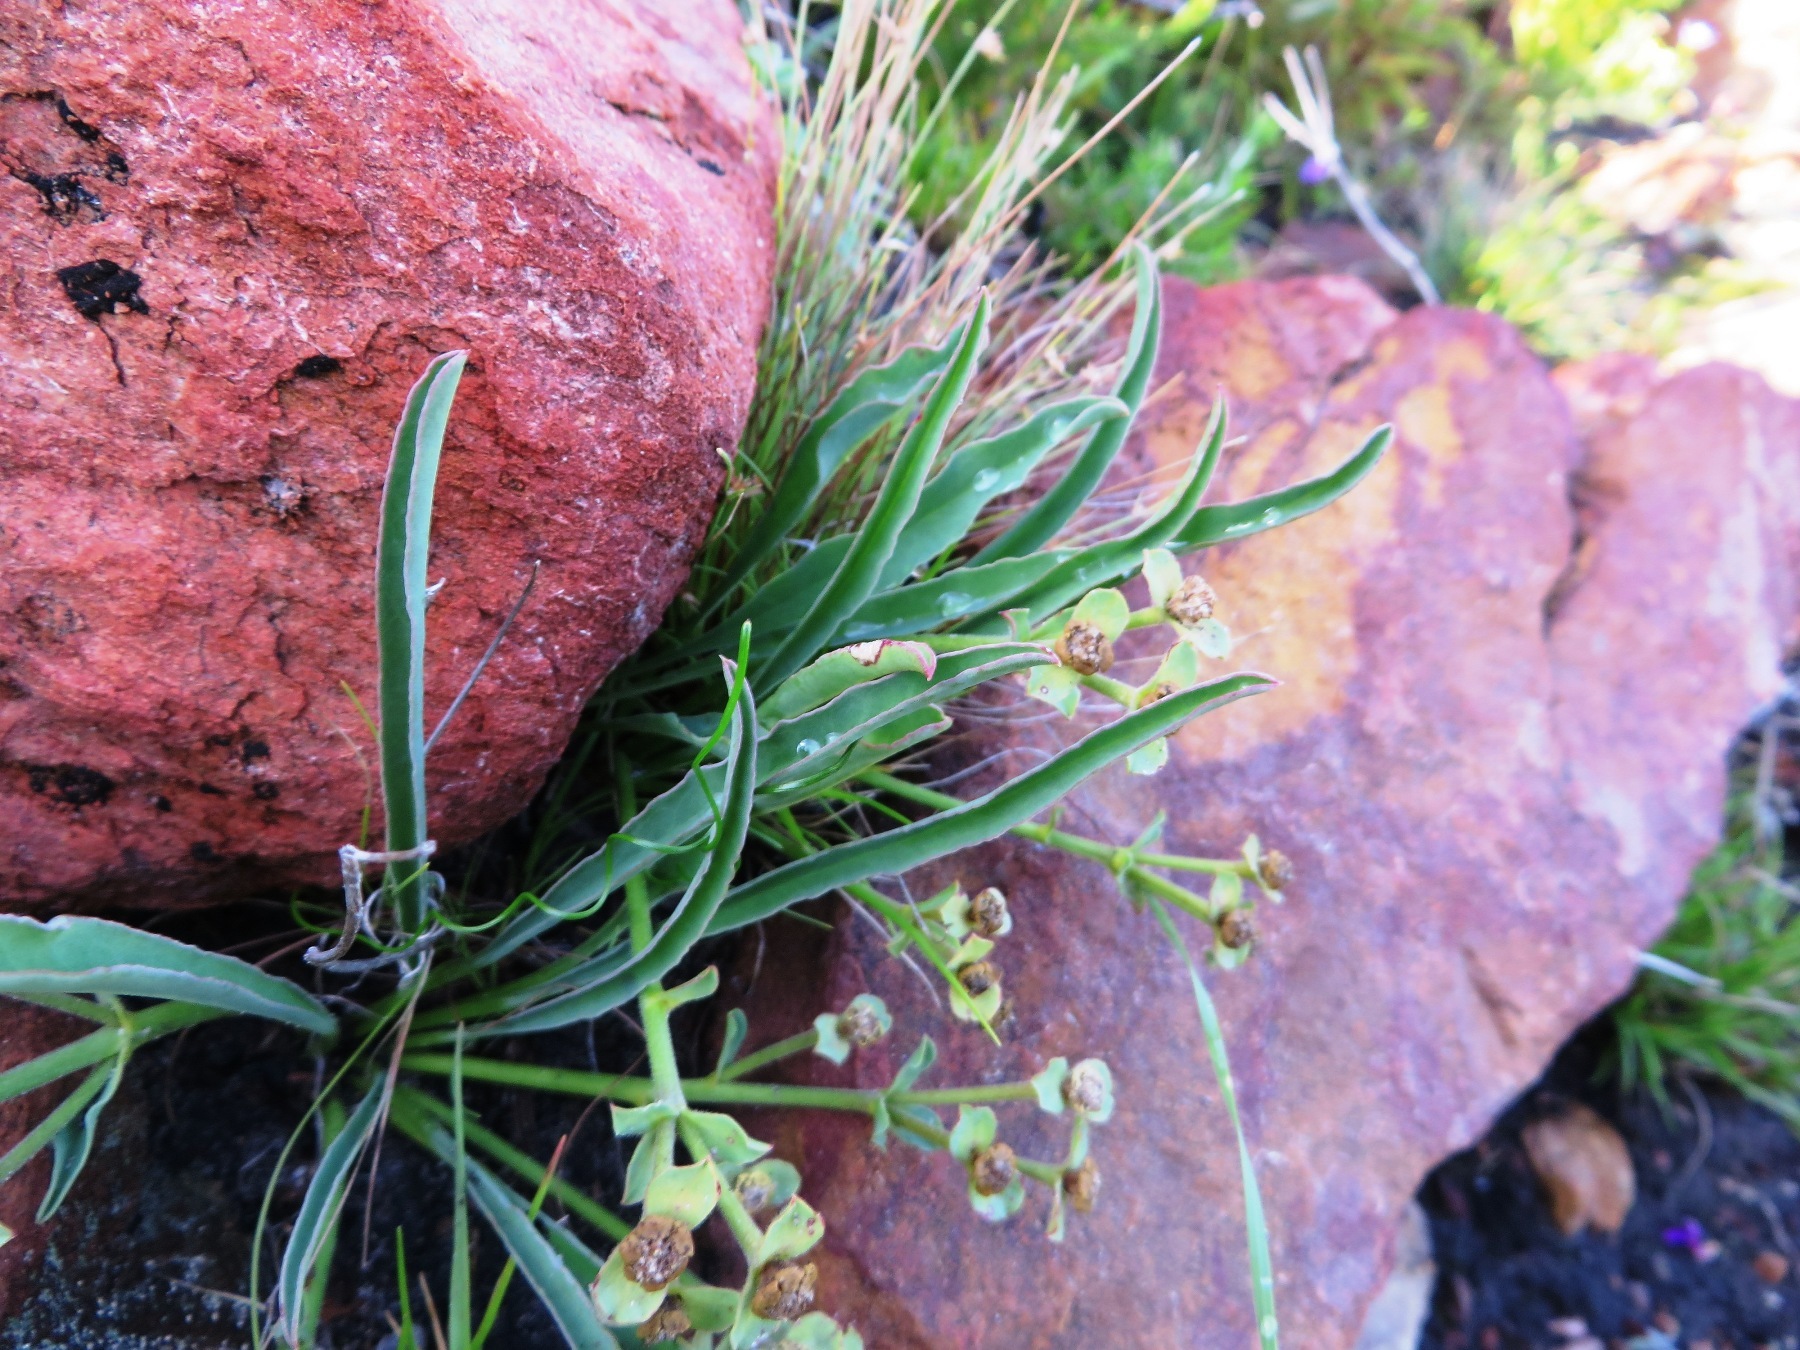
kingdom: Plantae
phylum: Tracheophyta
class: Magnoliopsida
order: Malpighiales
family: Euphorbiaceae
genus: Euphorbia
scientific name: Euphorbia silenifolia
